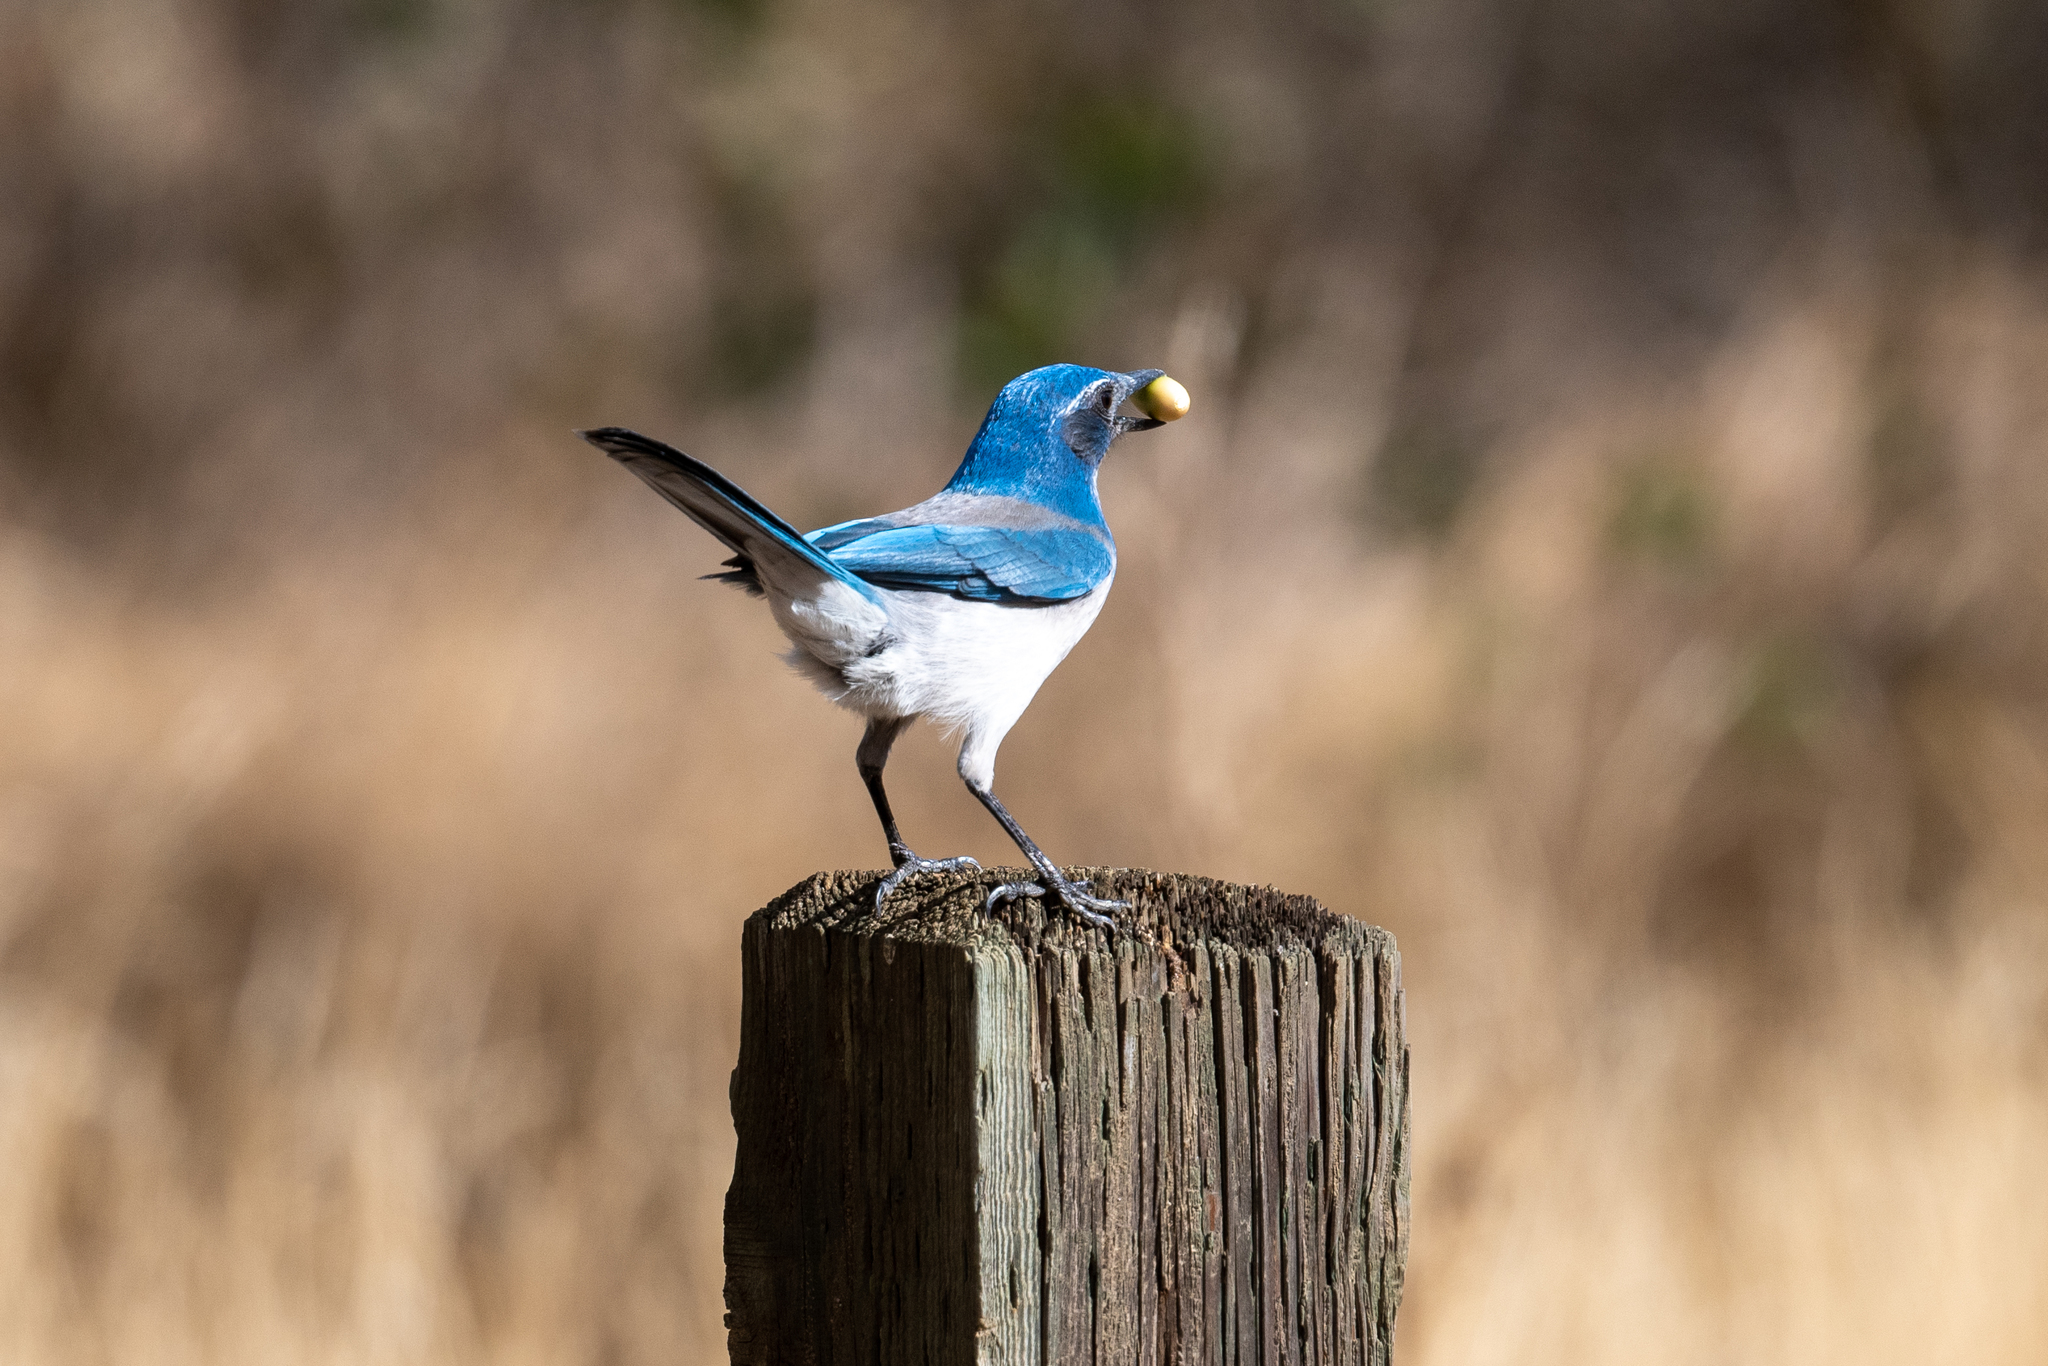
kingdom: Animalia
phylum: Chordata
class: Aves
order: Passeriformes
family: Corvidae
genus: Aphelocoma
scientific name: Aphelocoma californica
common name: California scrub-jay
